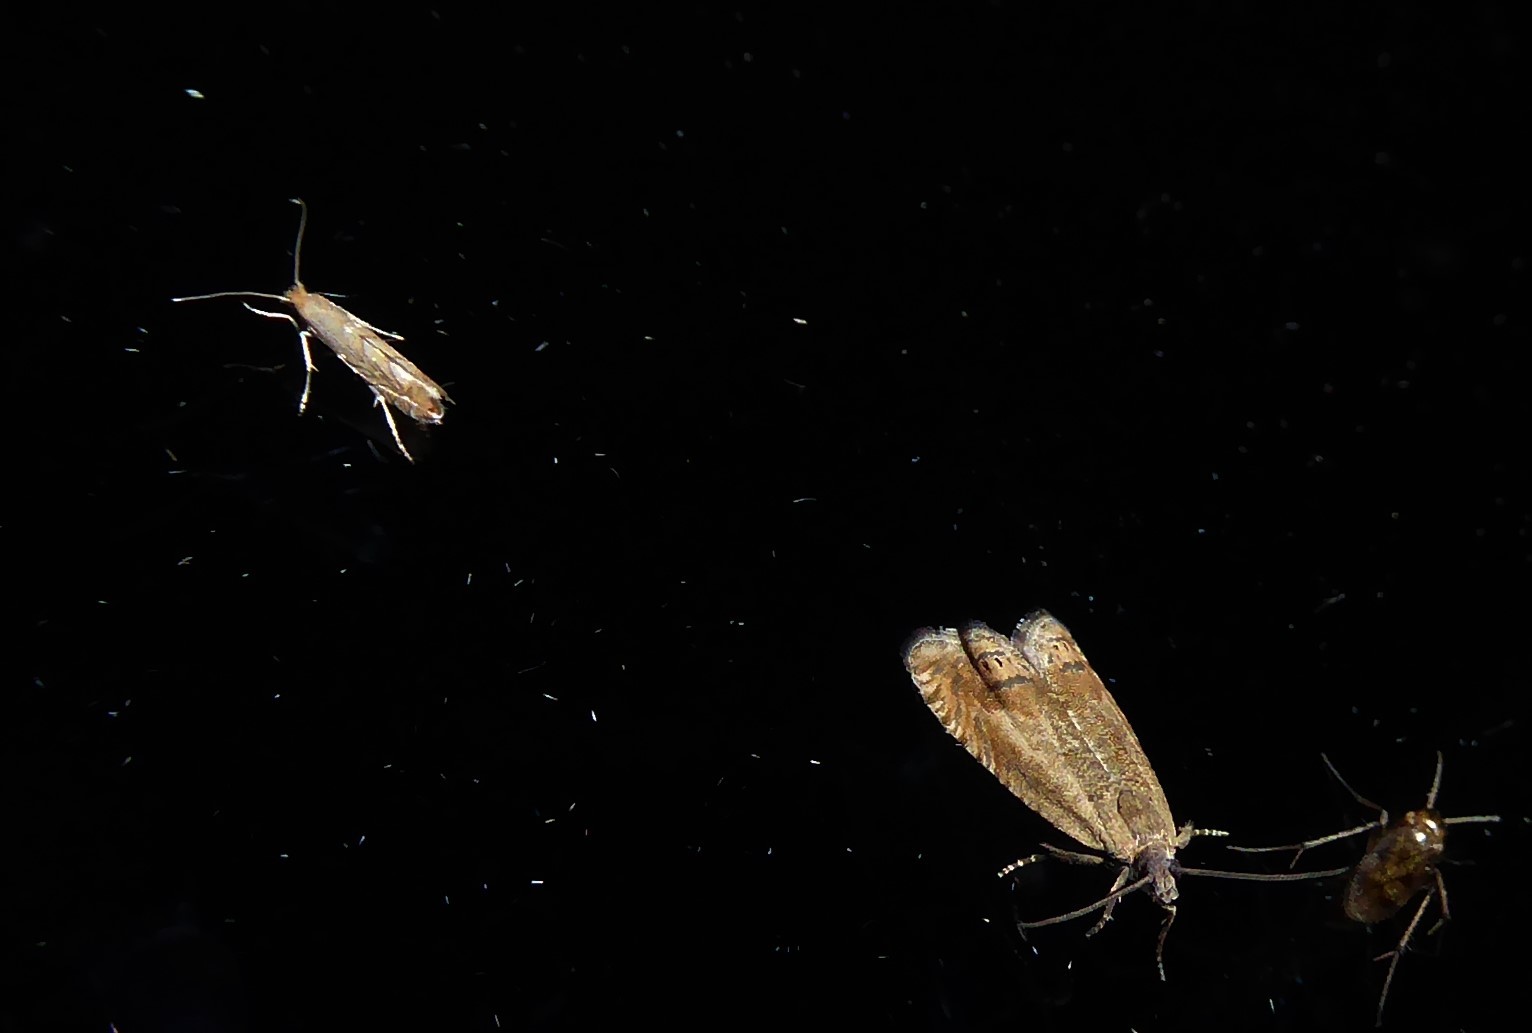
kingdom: Animalia
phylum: Arthropoda
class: Insecta
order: Lepidoptera
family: Gracillariidae
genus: Phyllonorycter
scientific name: Phyllonorycter messaniella
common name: Garden midget
